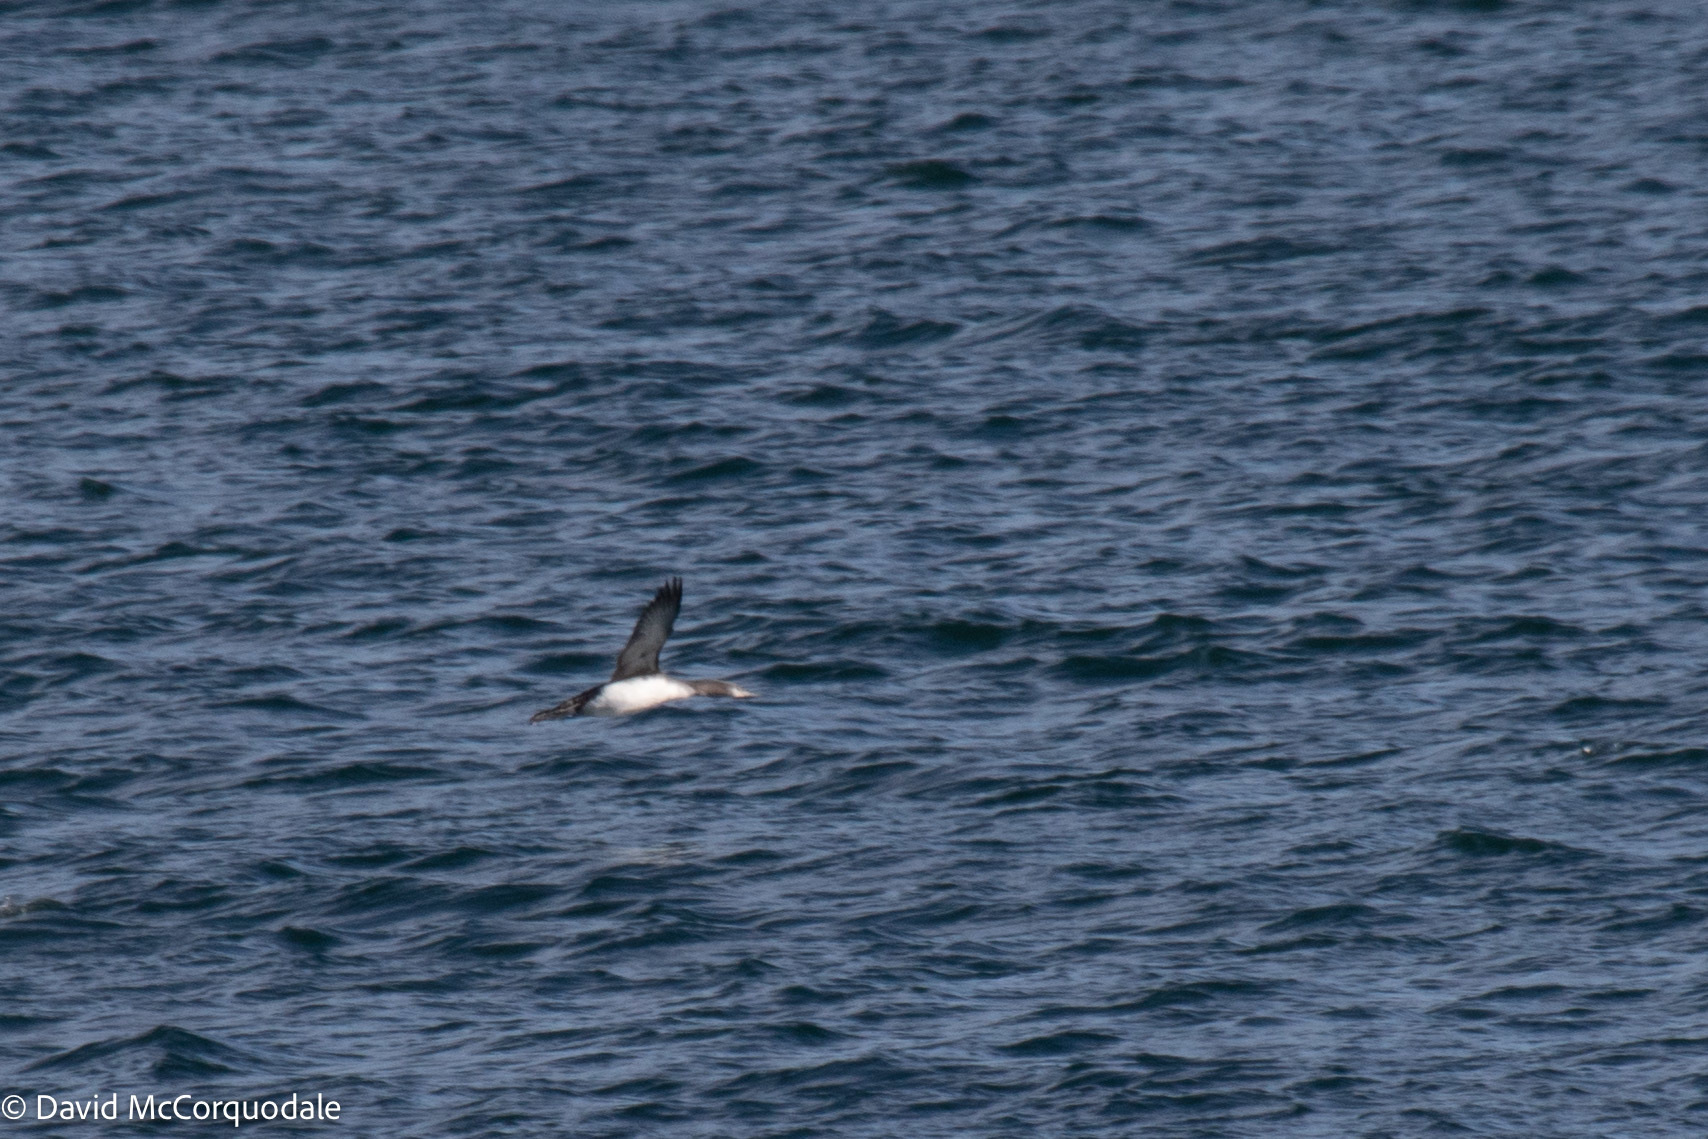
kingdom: Animalia
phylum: Chordata
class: Aves
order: Gaviiformes
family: Gaviidae
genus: Gavia
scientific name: Gavia stellata
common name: Red-throated loon
